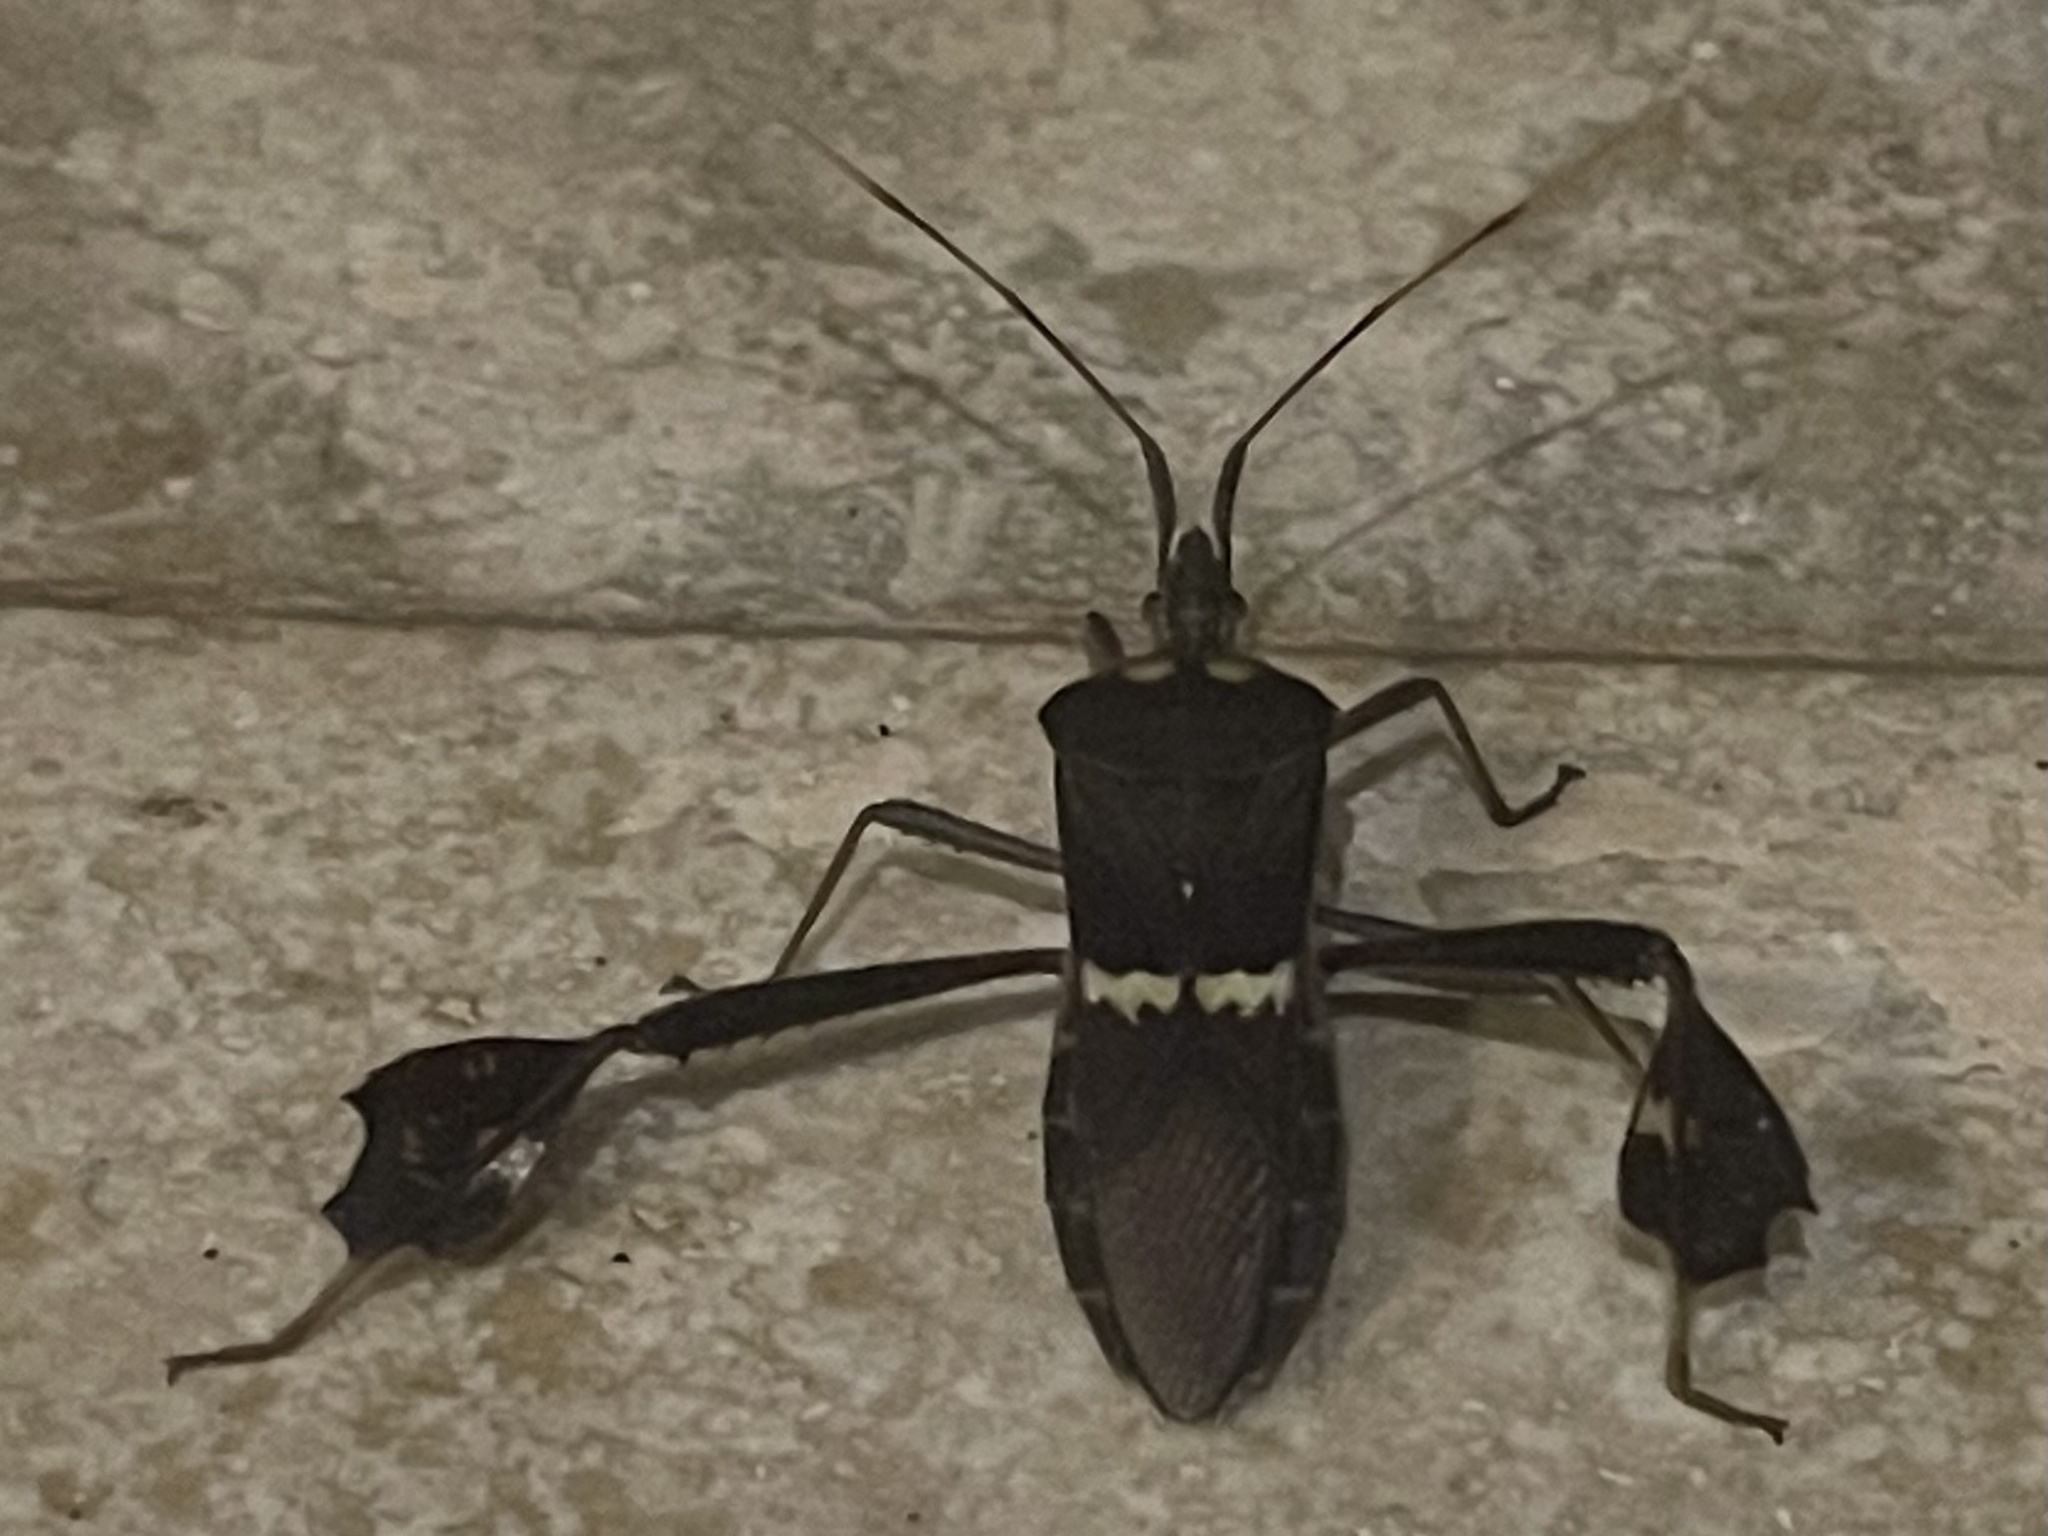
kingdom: Animalia
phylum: Arthropoda
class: Insecta
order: Hemiptera
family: Coreidae
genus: Leptoglossus
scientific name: Leptoglossus zonatus
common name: Large-legged bug
